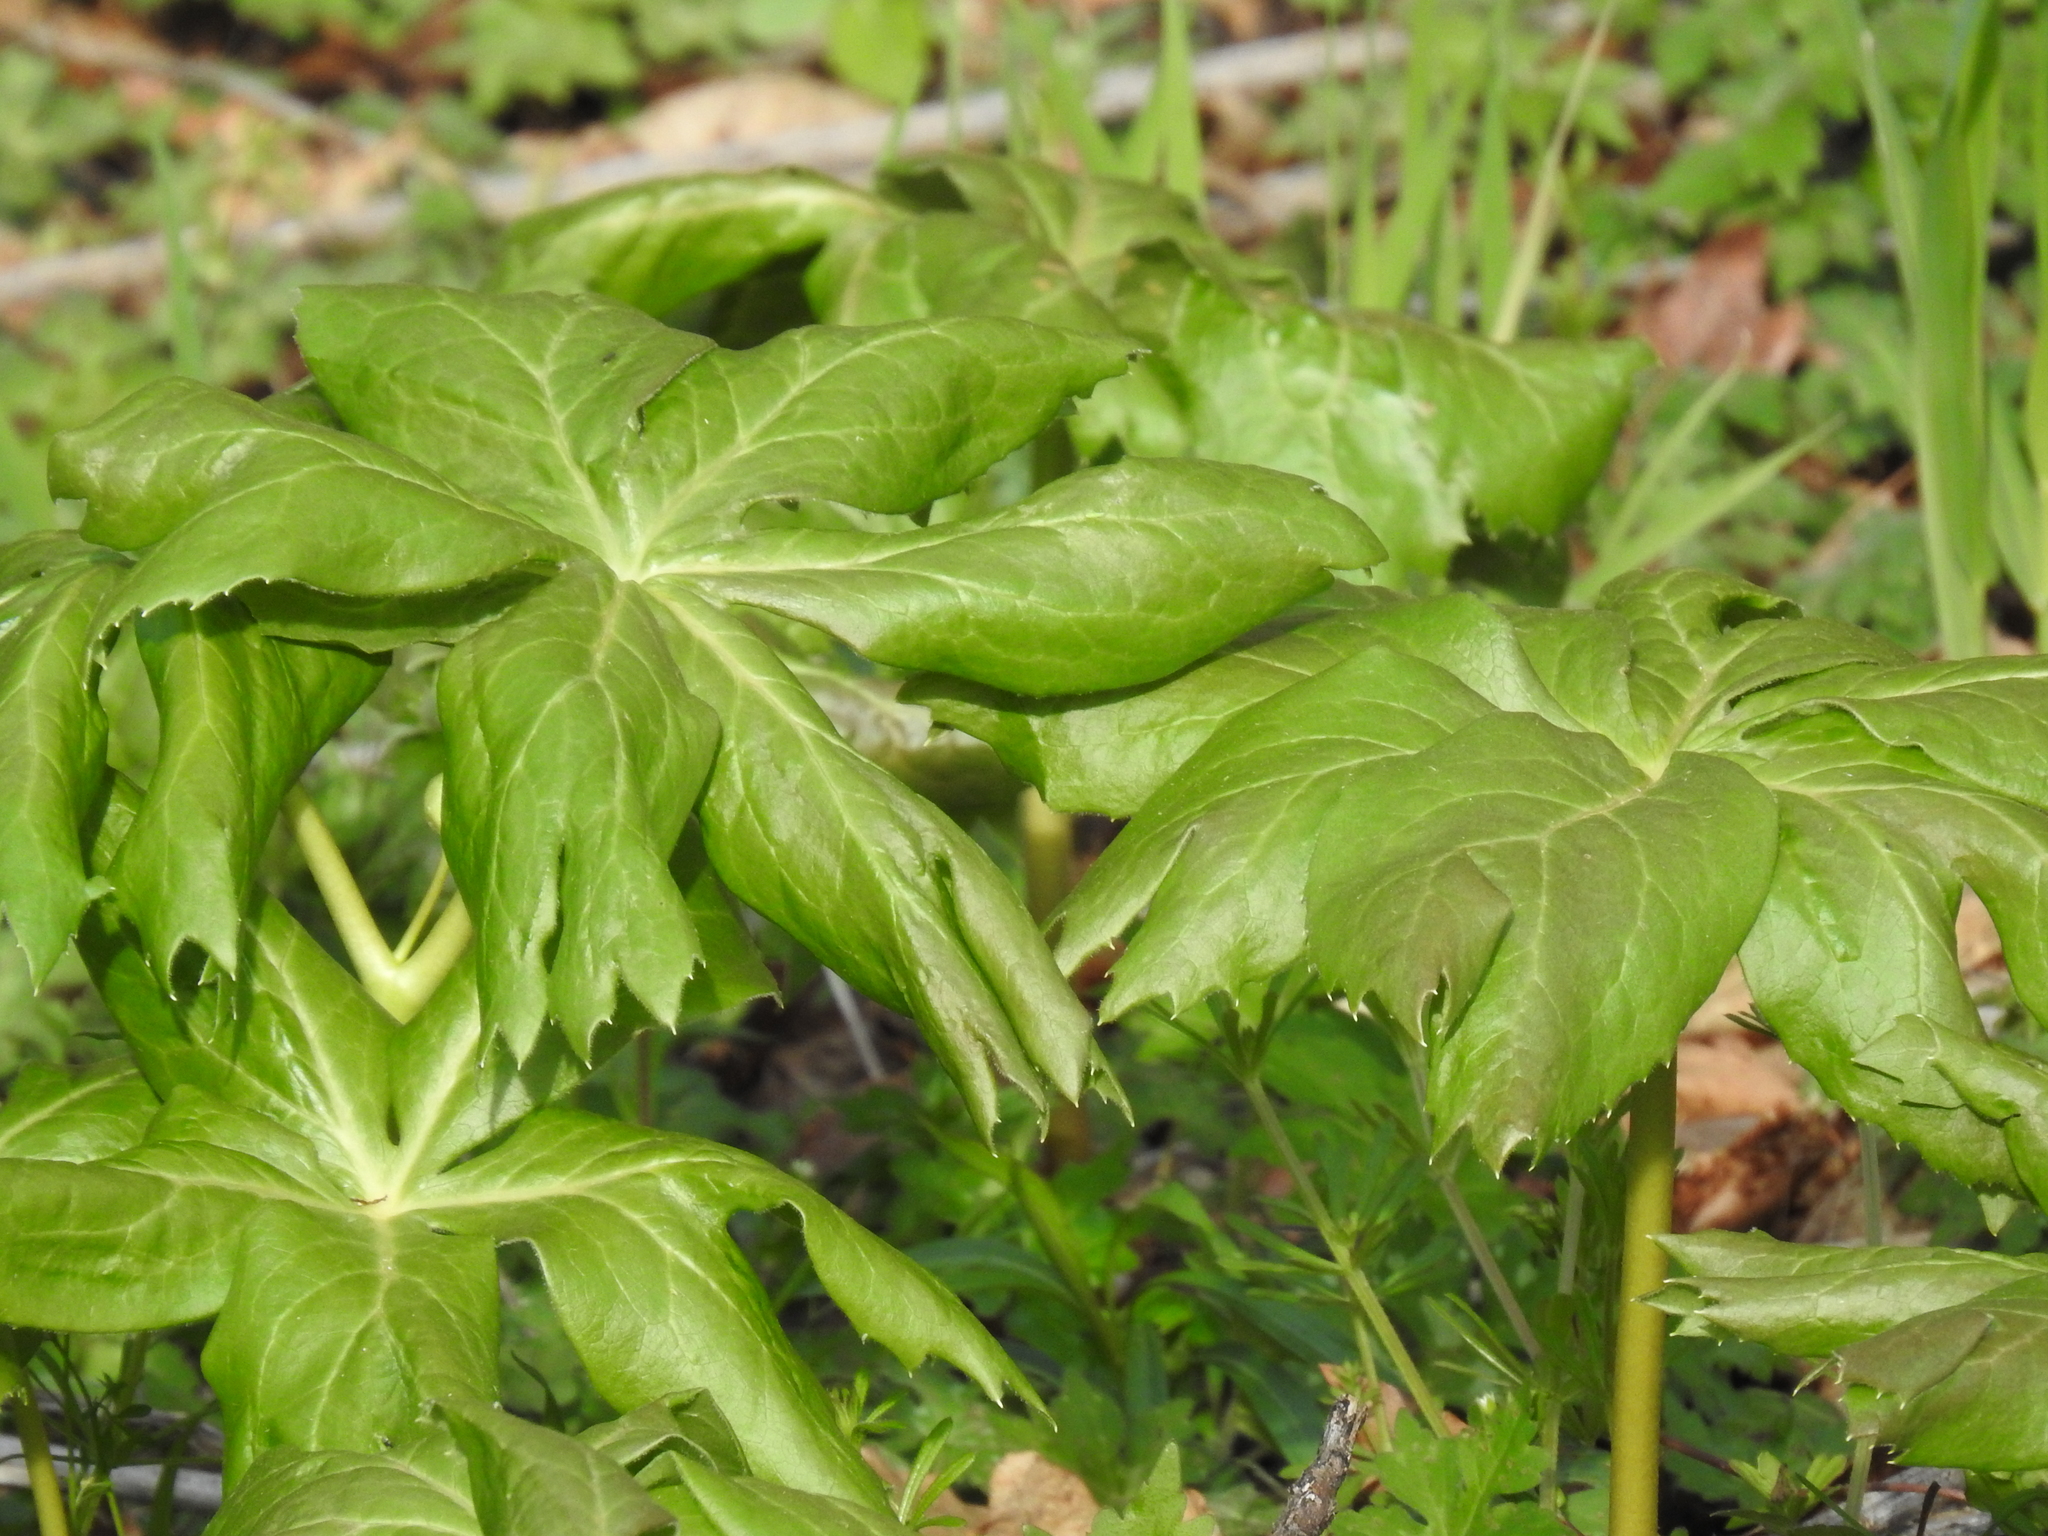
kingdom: Plantae
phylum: Tracheophyta
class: Magnoliopsida
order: Ranunculales
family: Berberidaceae
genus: Podophyllum
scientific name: Podophyllum peltatum
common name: Wild mandrake
